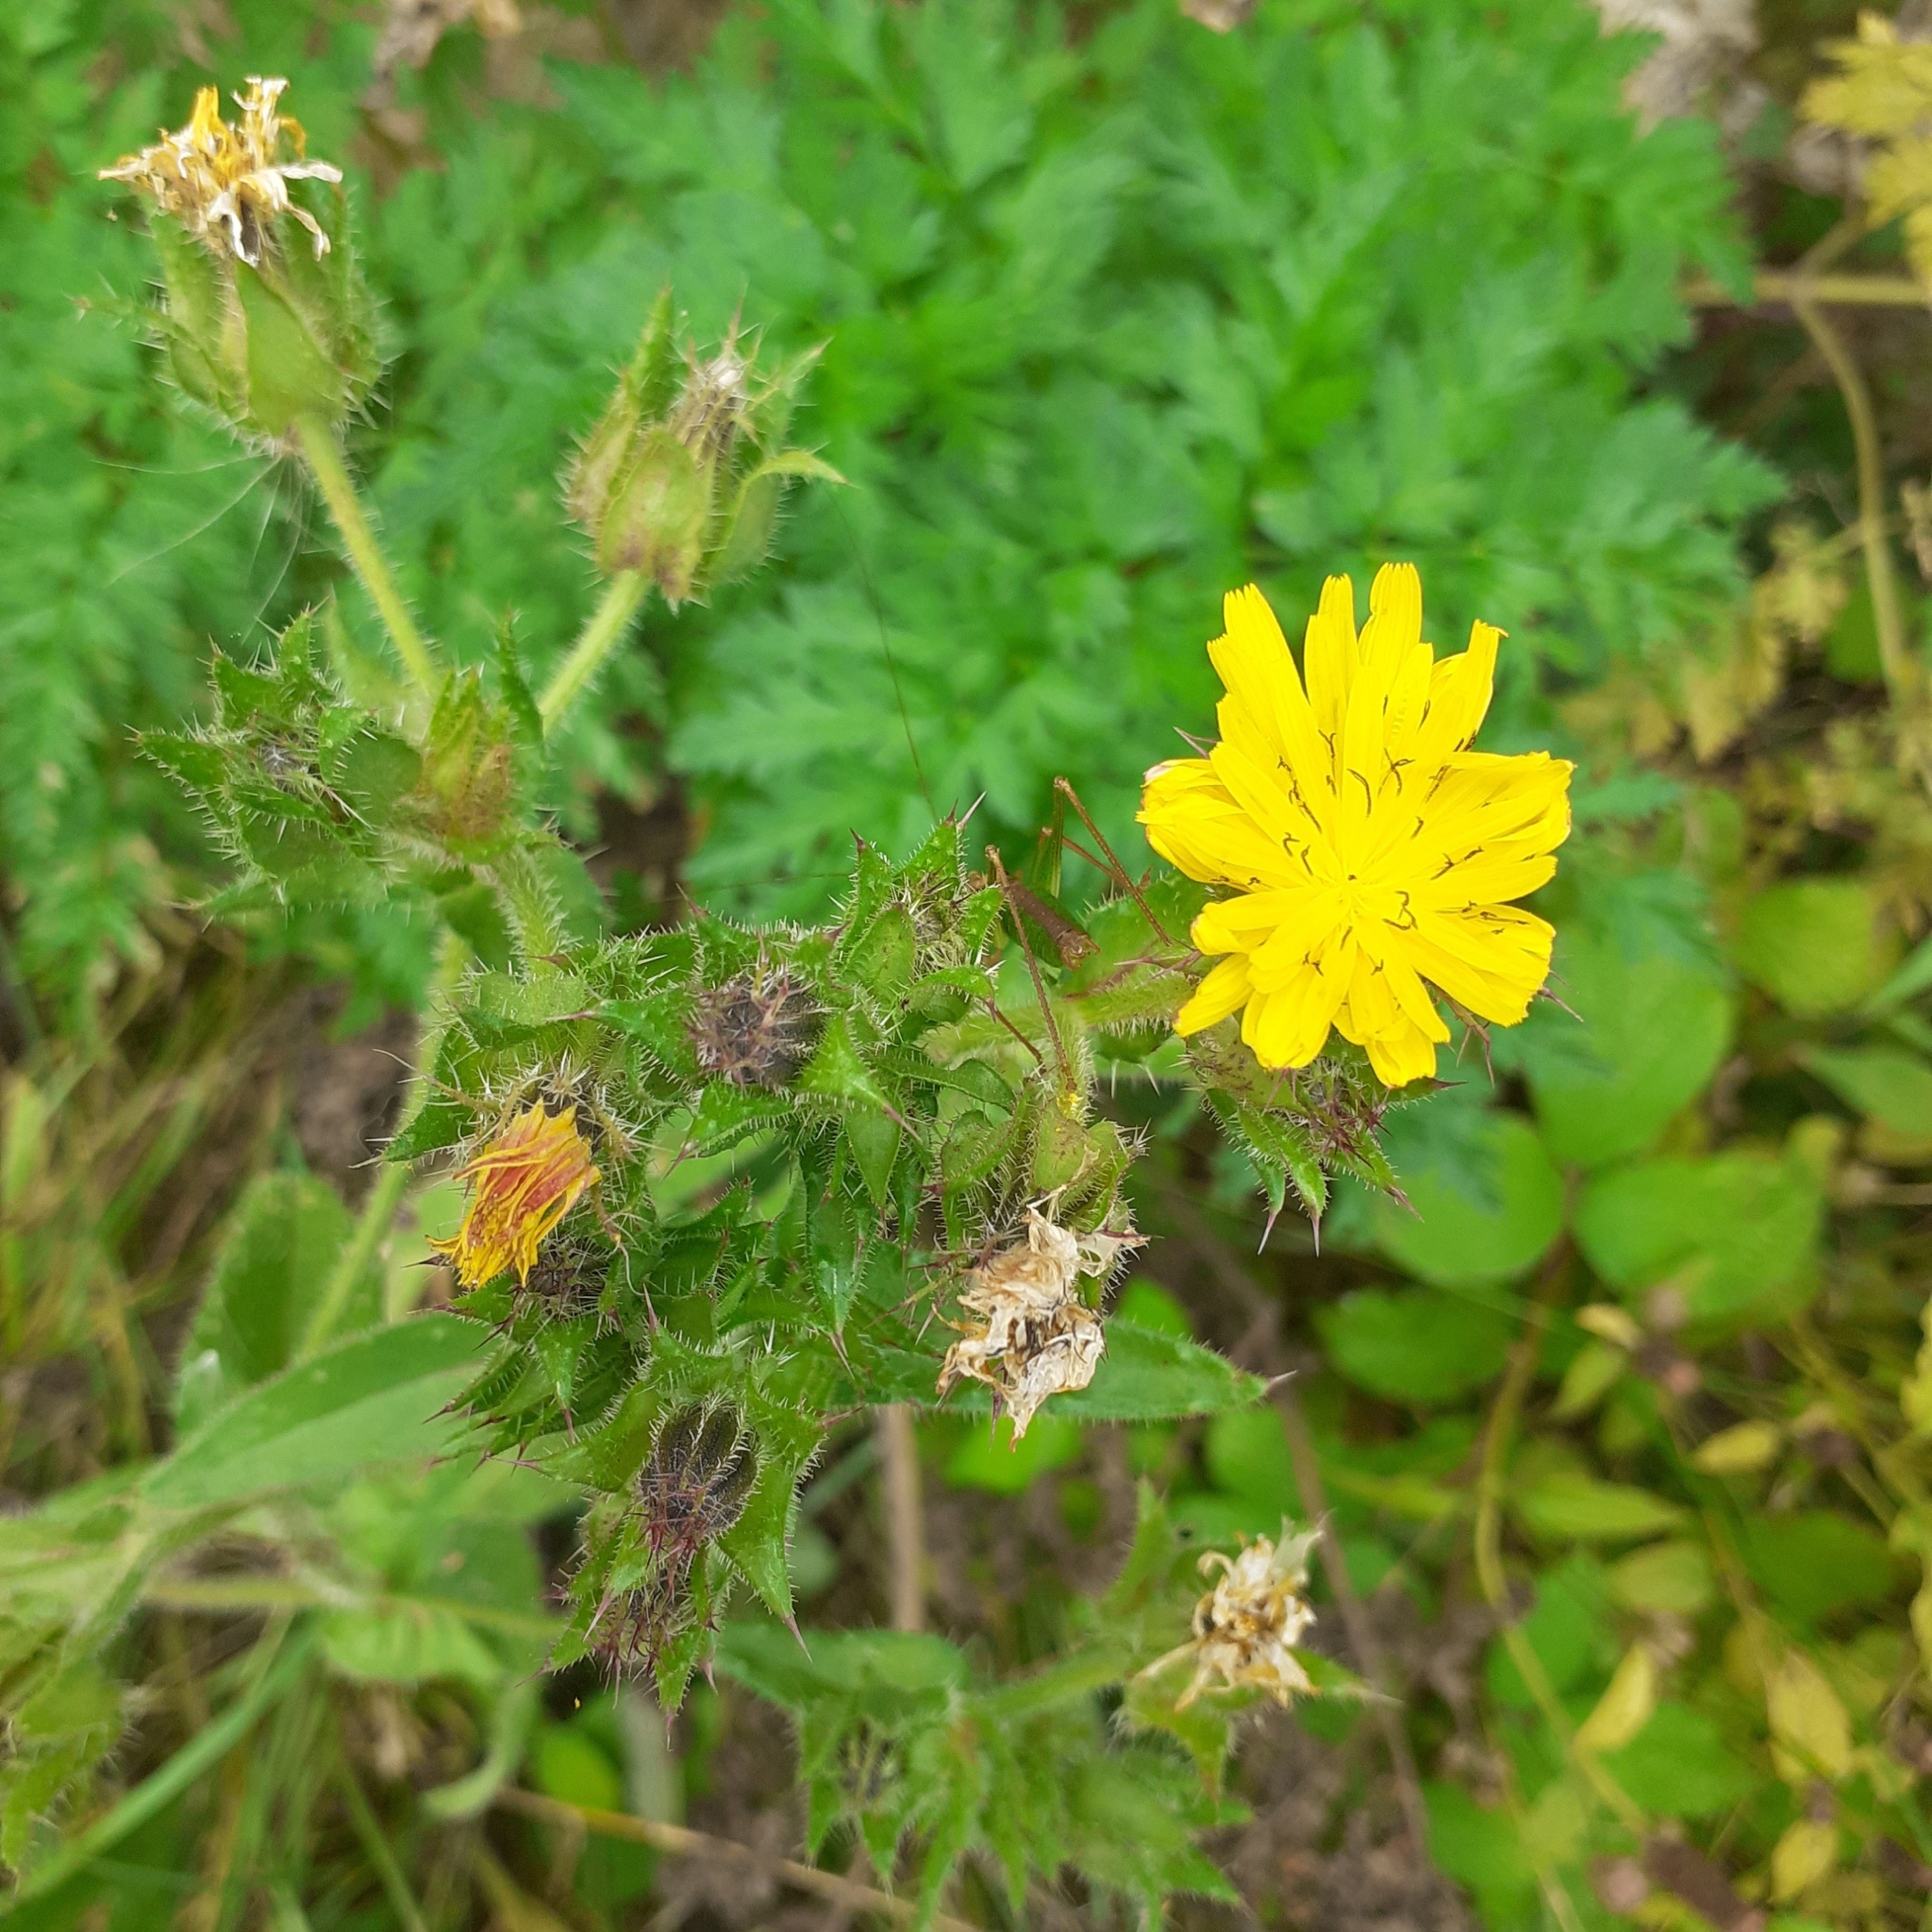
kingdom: Plantae
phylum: Tracheophyta
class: Magnoliopsida
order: Asterales
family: Asteraceae
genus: Helminthotheca
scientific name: Helminthotheca echioides
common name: Ox-tongue
